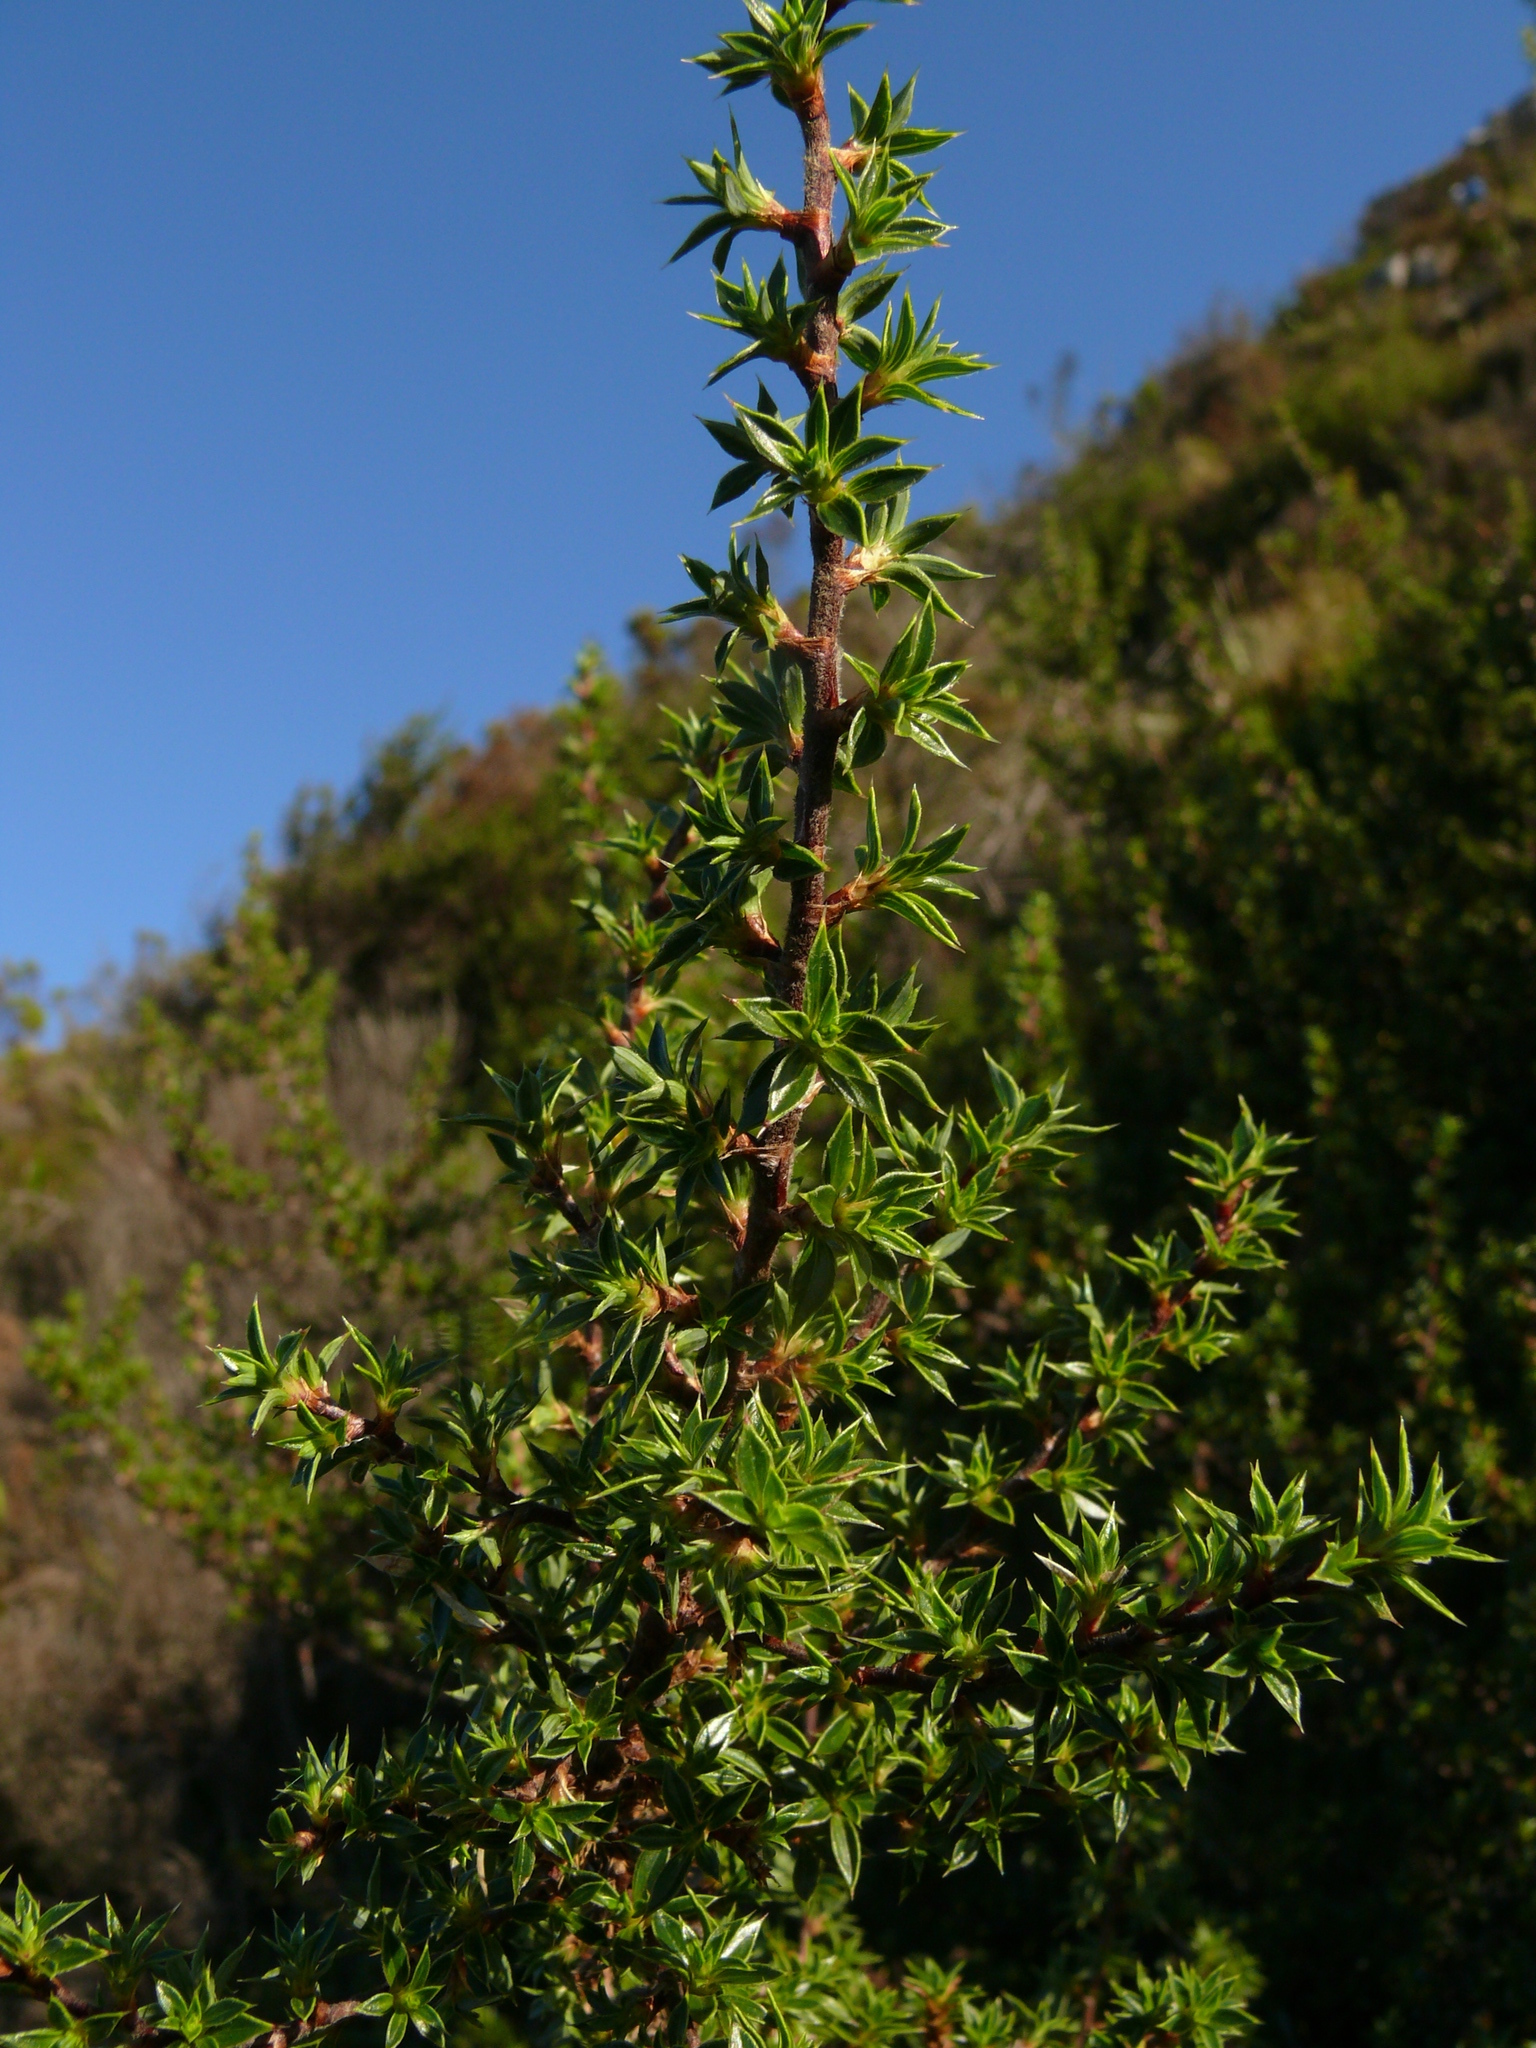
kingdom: Plantae
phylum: Tracheophyta
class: Magnoliopsida
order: Rosales
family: Rosaceae
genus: Cliffortia
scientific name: Cliffortia ruscifolia
